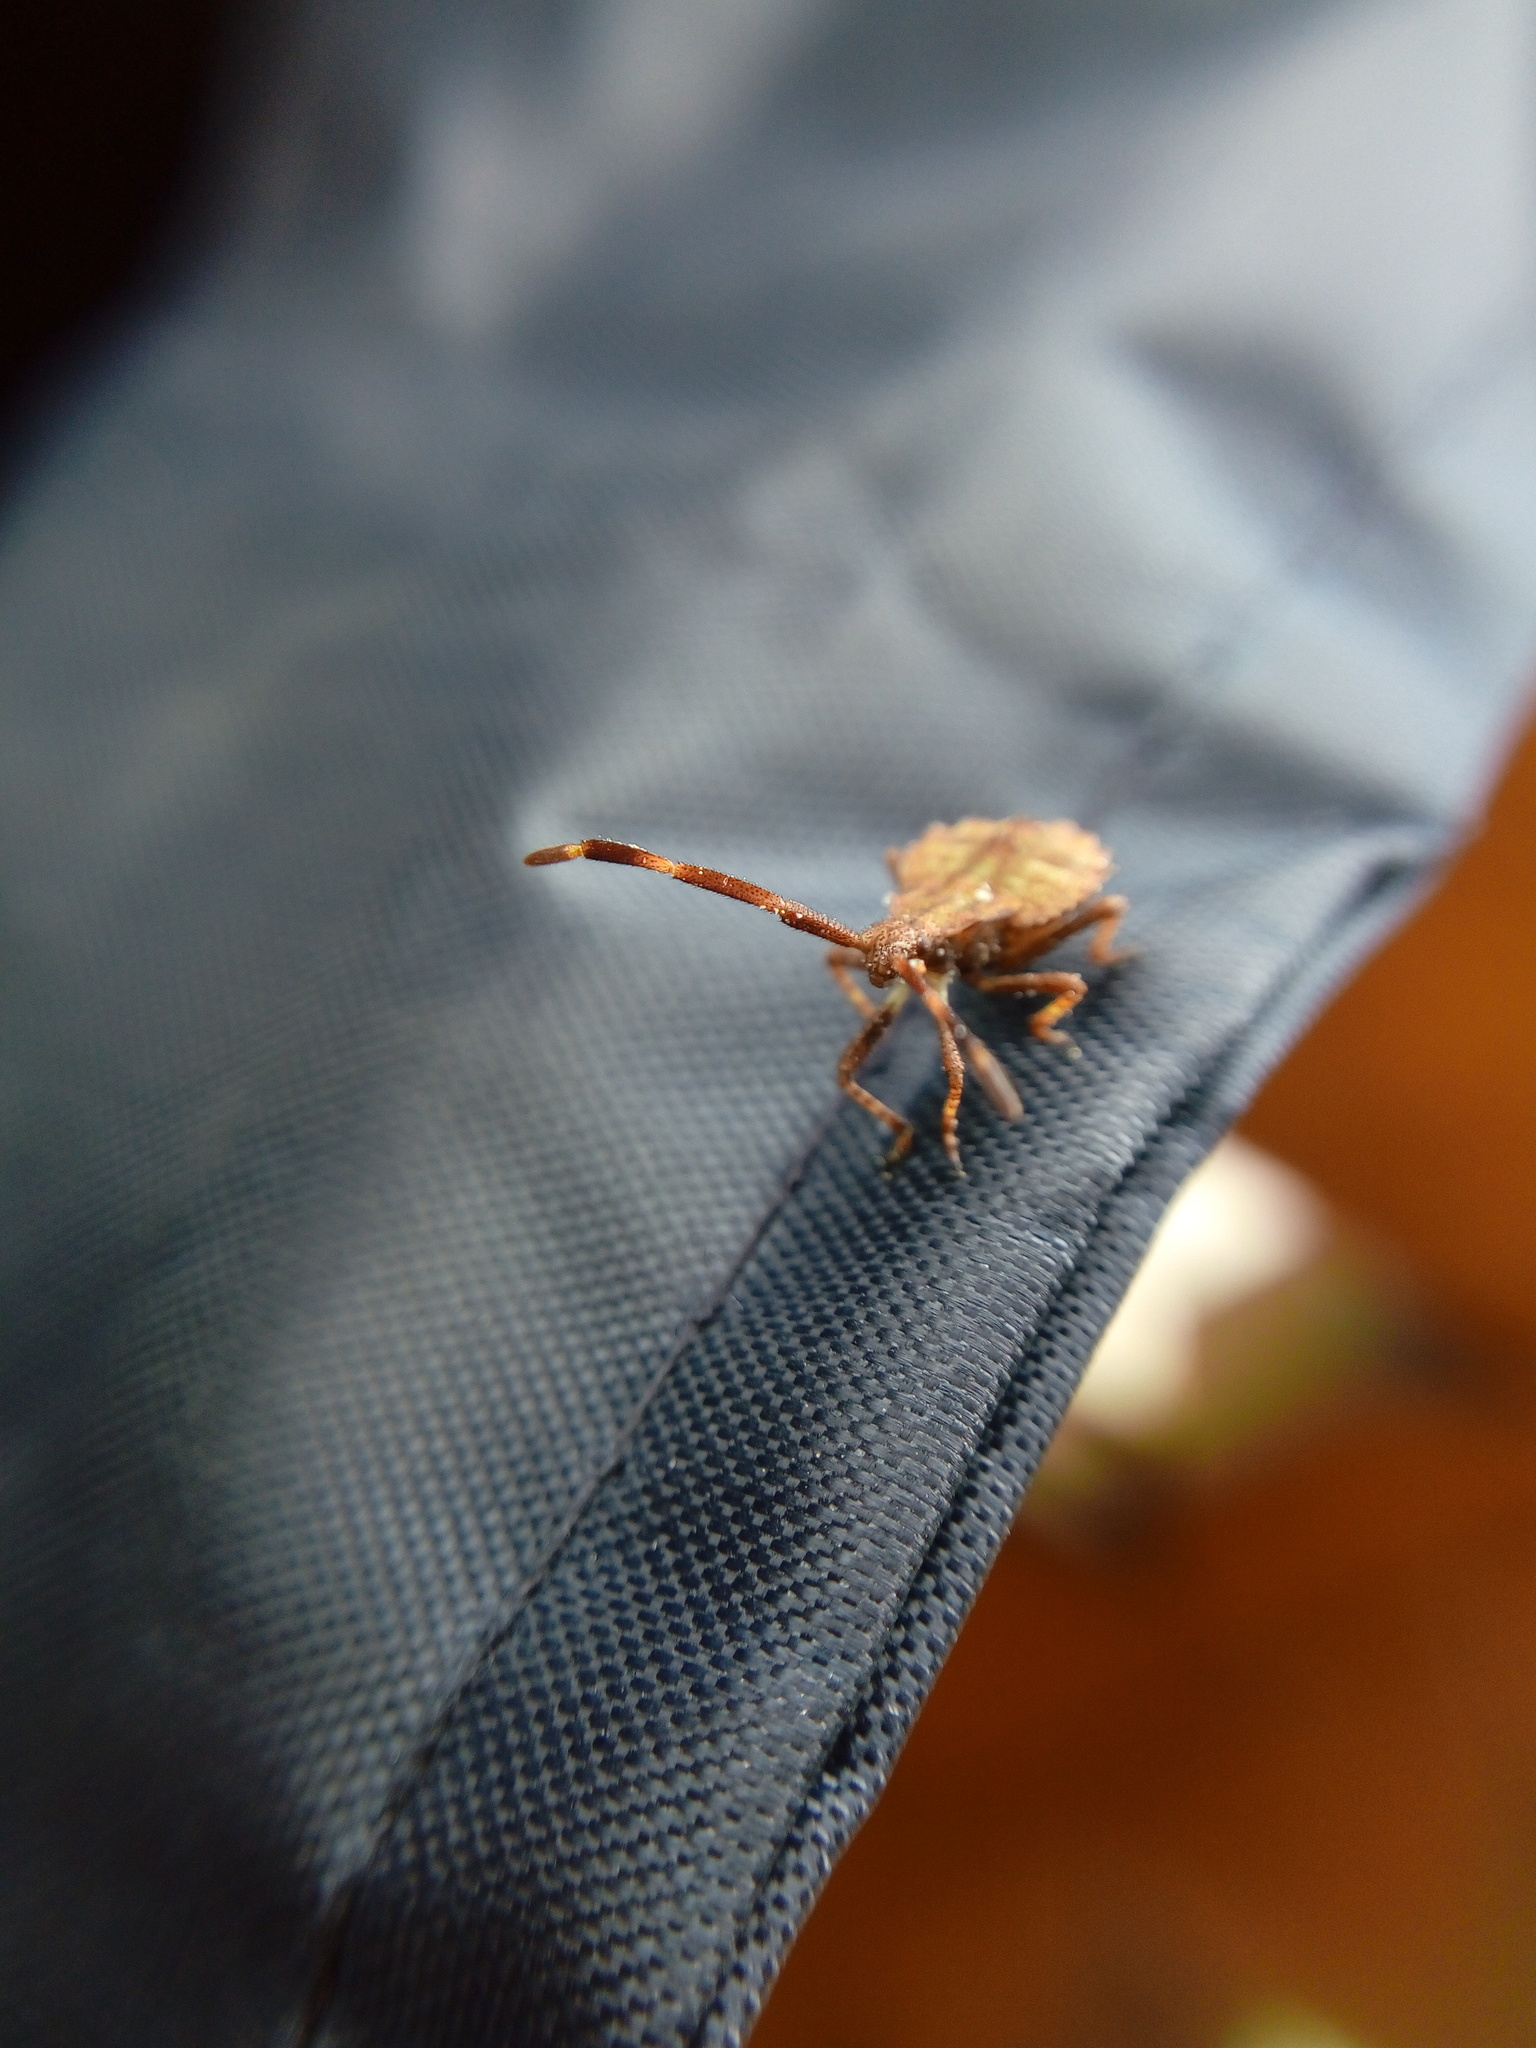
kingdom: Animalia
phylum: Arthropoda
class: Insecta
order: Hemiptera
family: Coreidae
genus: Coreus
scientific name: Coreus marginatus
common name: Dock bug
